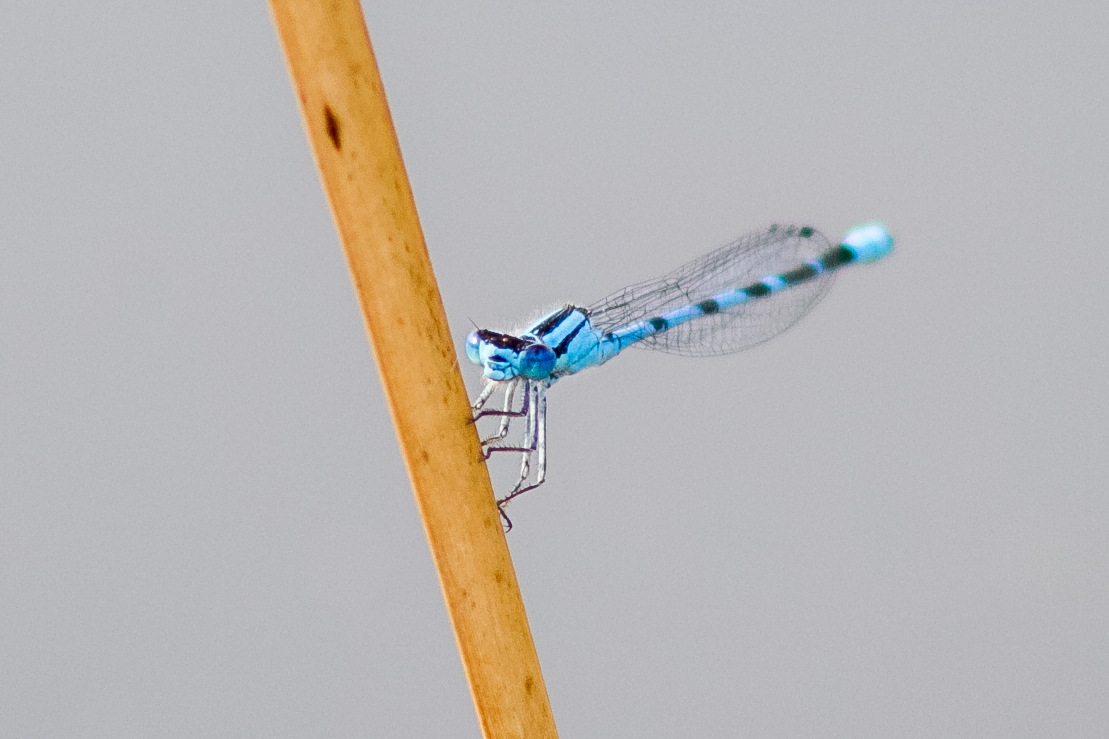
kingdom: Animalia
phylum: Arthropoda
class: Insecta
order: Odonata
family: Coenagrionidae
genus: Enallagma
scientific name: Enallagma cyathigerum
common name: Common blue damselfly
